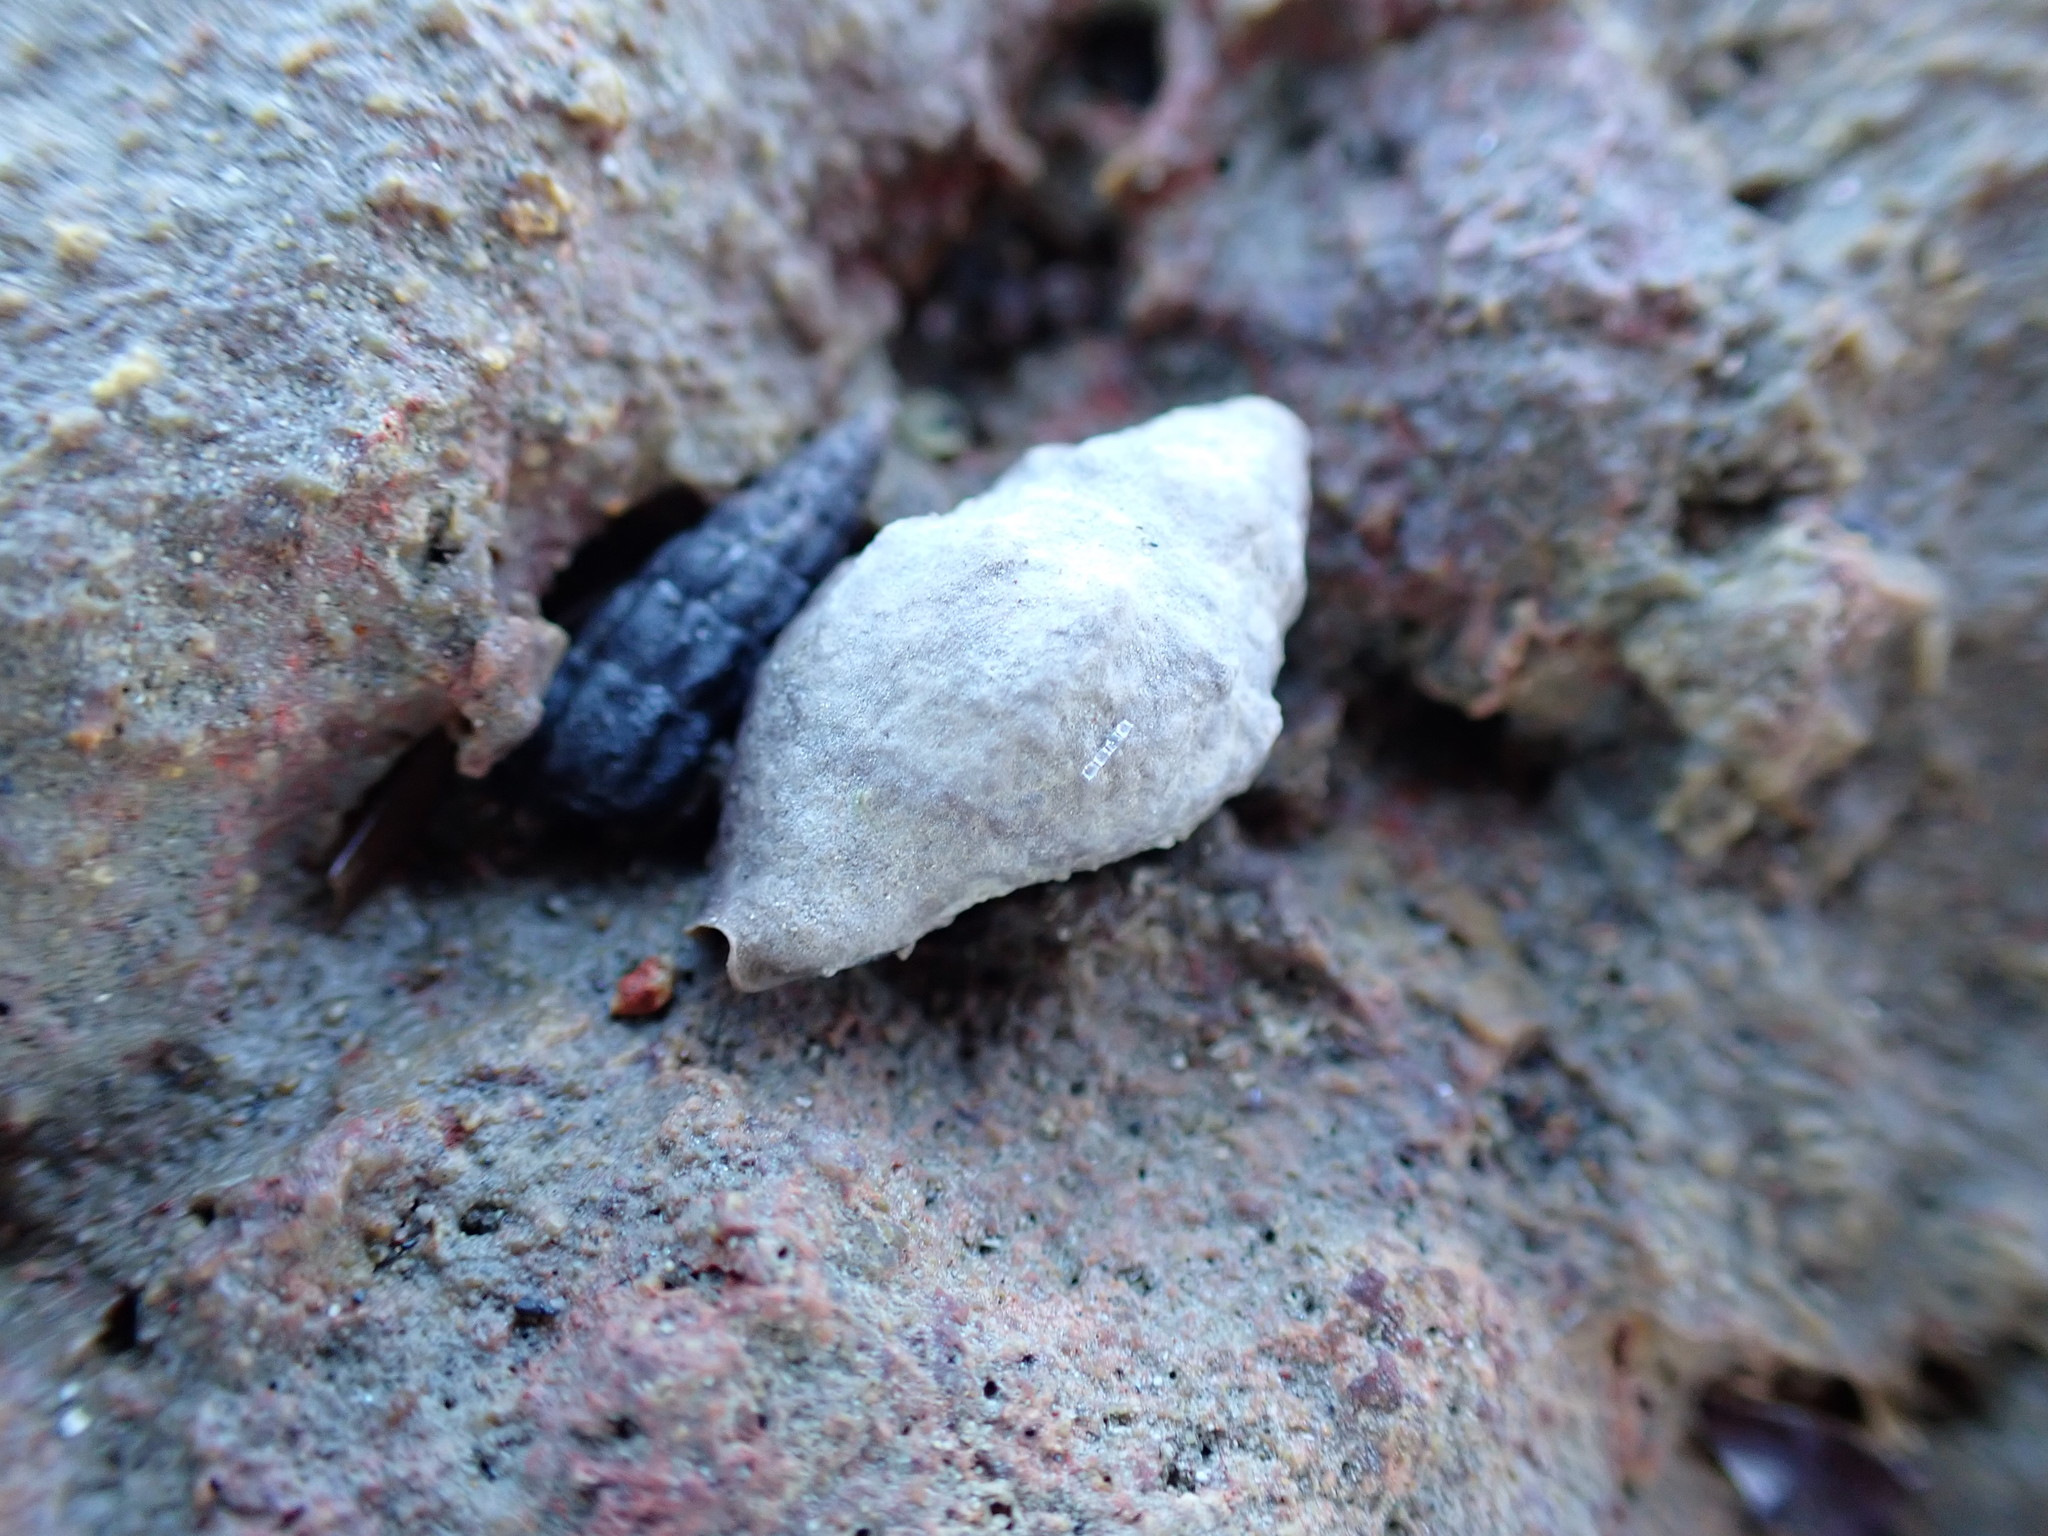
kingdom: Animalia
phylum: Mollusca
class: Gastropoda
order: Neogastropoda
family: Cominellidae
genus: Cominella
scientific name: Cominella glandiformis
